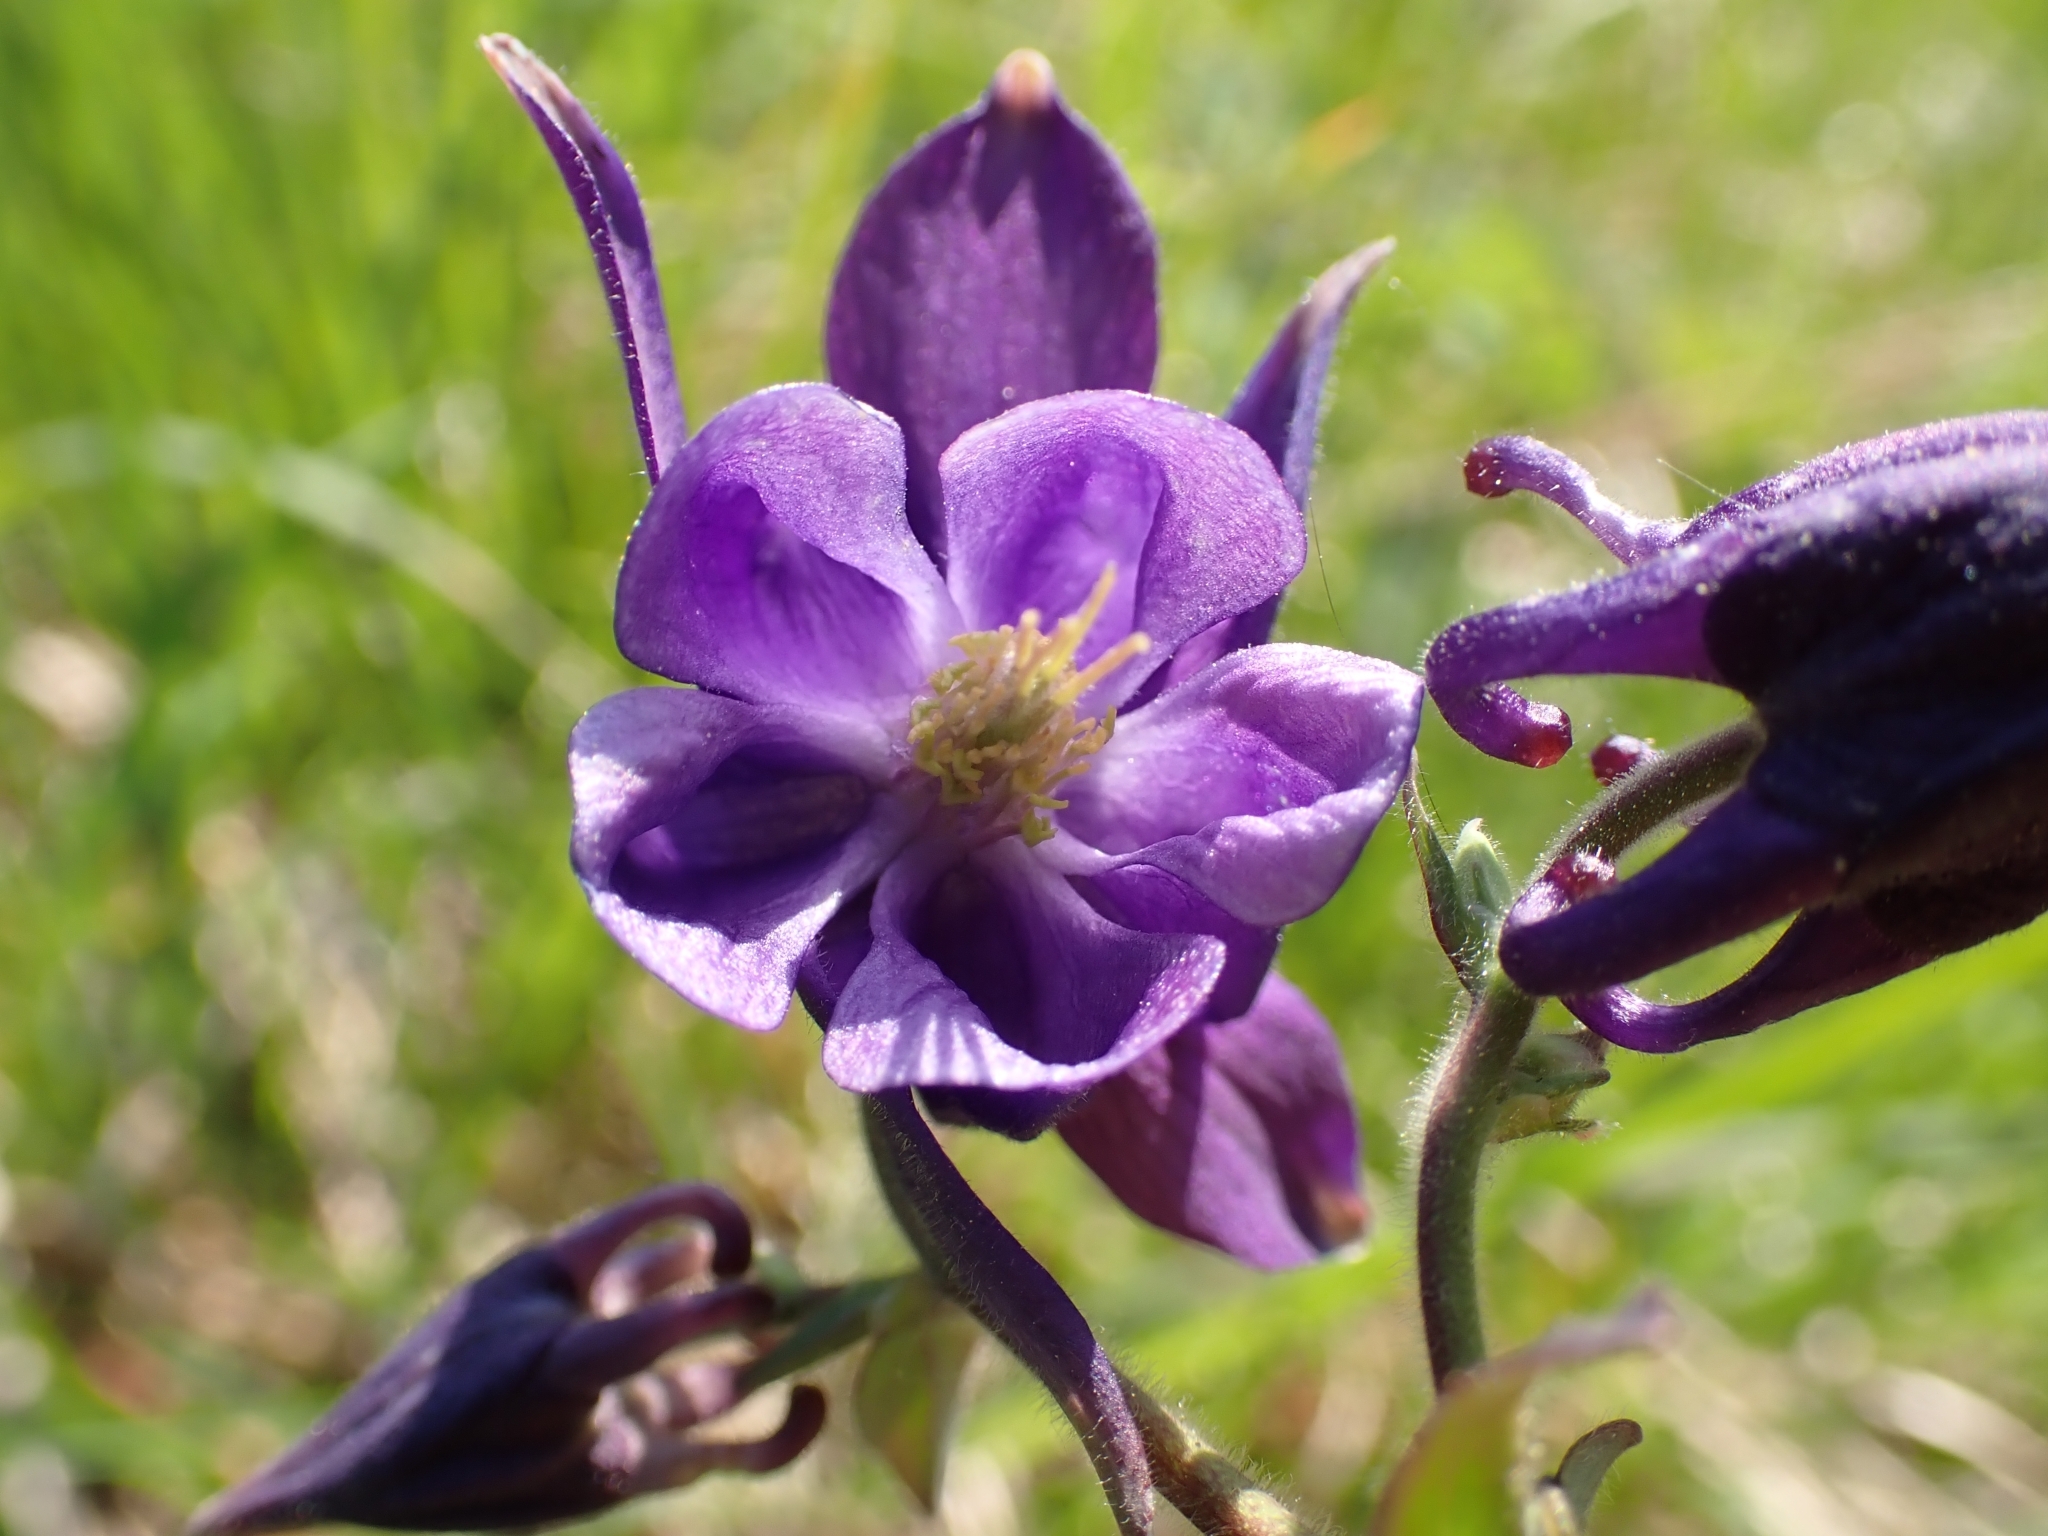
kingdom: Plantae
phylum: Tracheophyta
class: Magnoliopsida
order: Ranunculales
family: Ranunculaceae
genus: Aquilegia
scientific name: Aquilegia vulgaris
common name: Columbine
